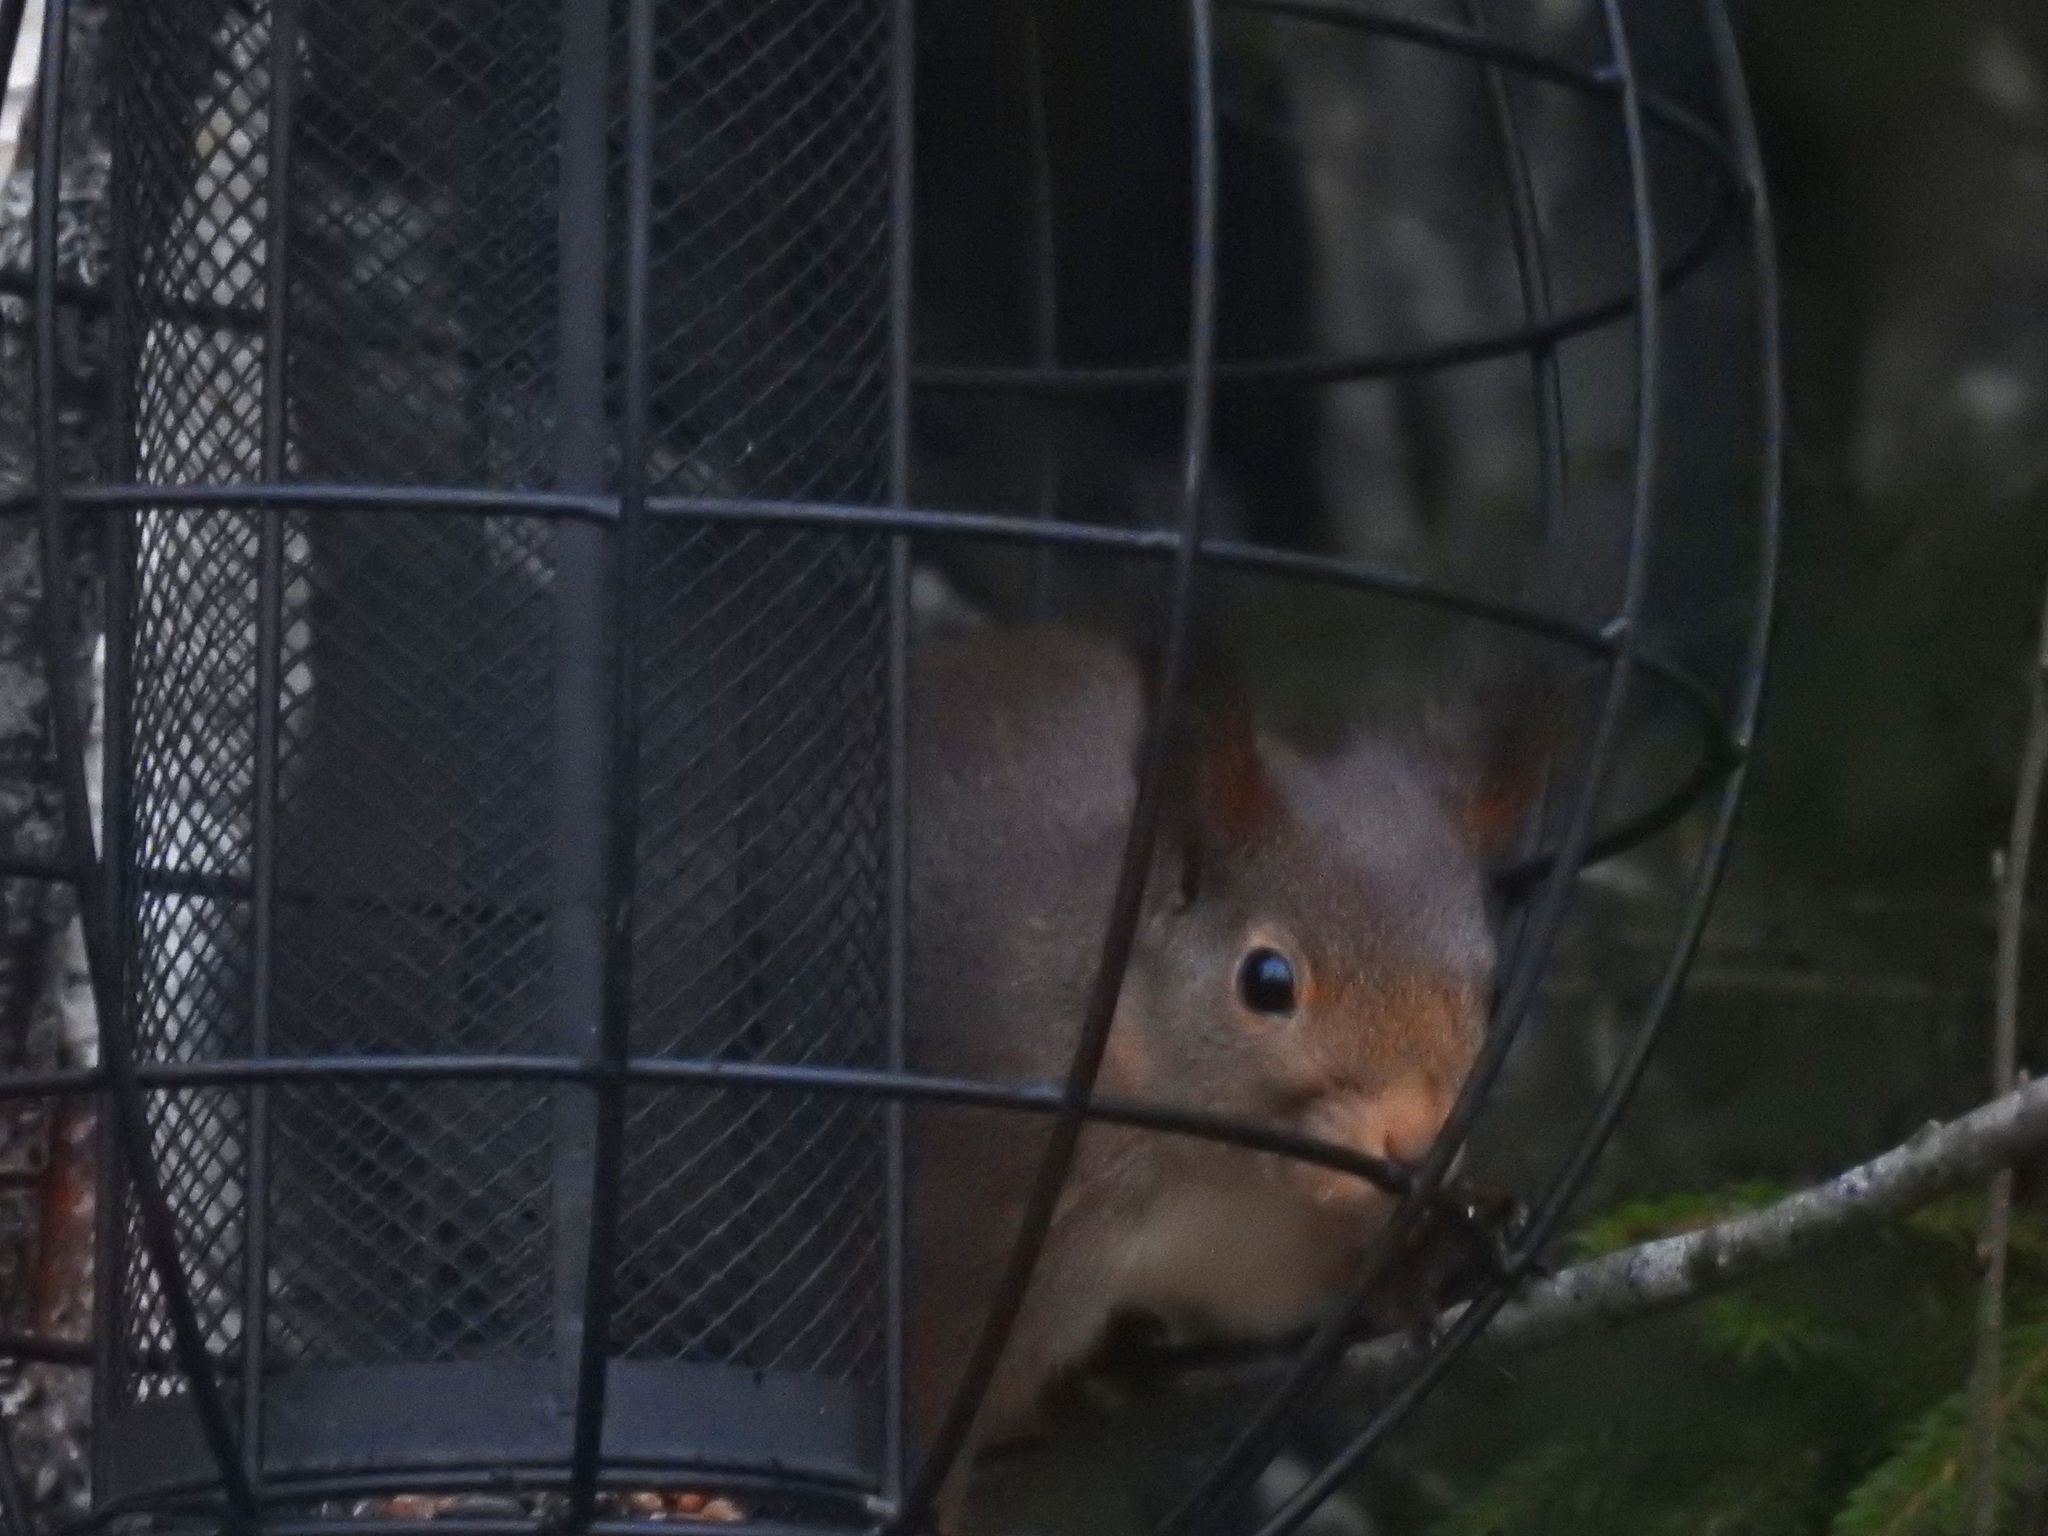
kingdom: Animalia
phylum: Chordata
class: Mammalia
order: Rodentia
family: Sciuridae
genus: Sciurus
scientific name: Sciurus vulgaris
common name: Eurasian red squirrel
